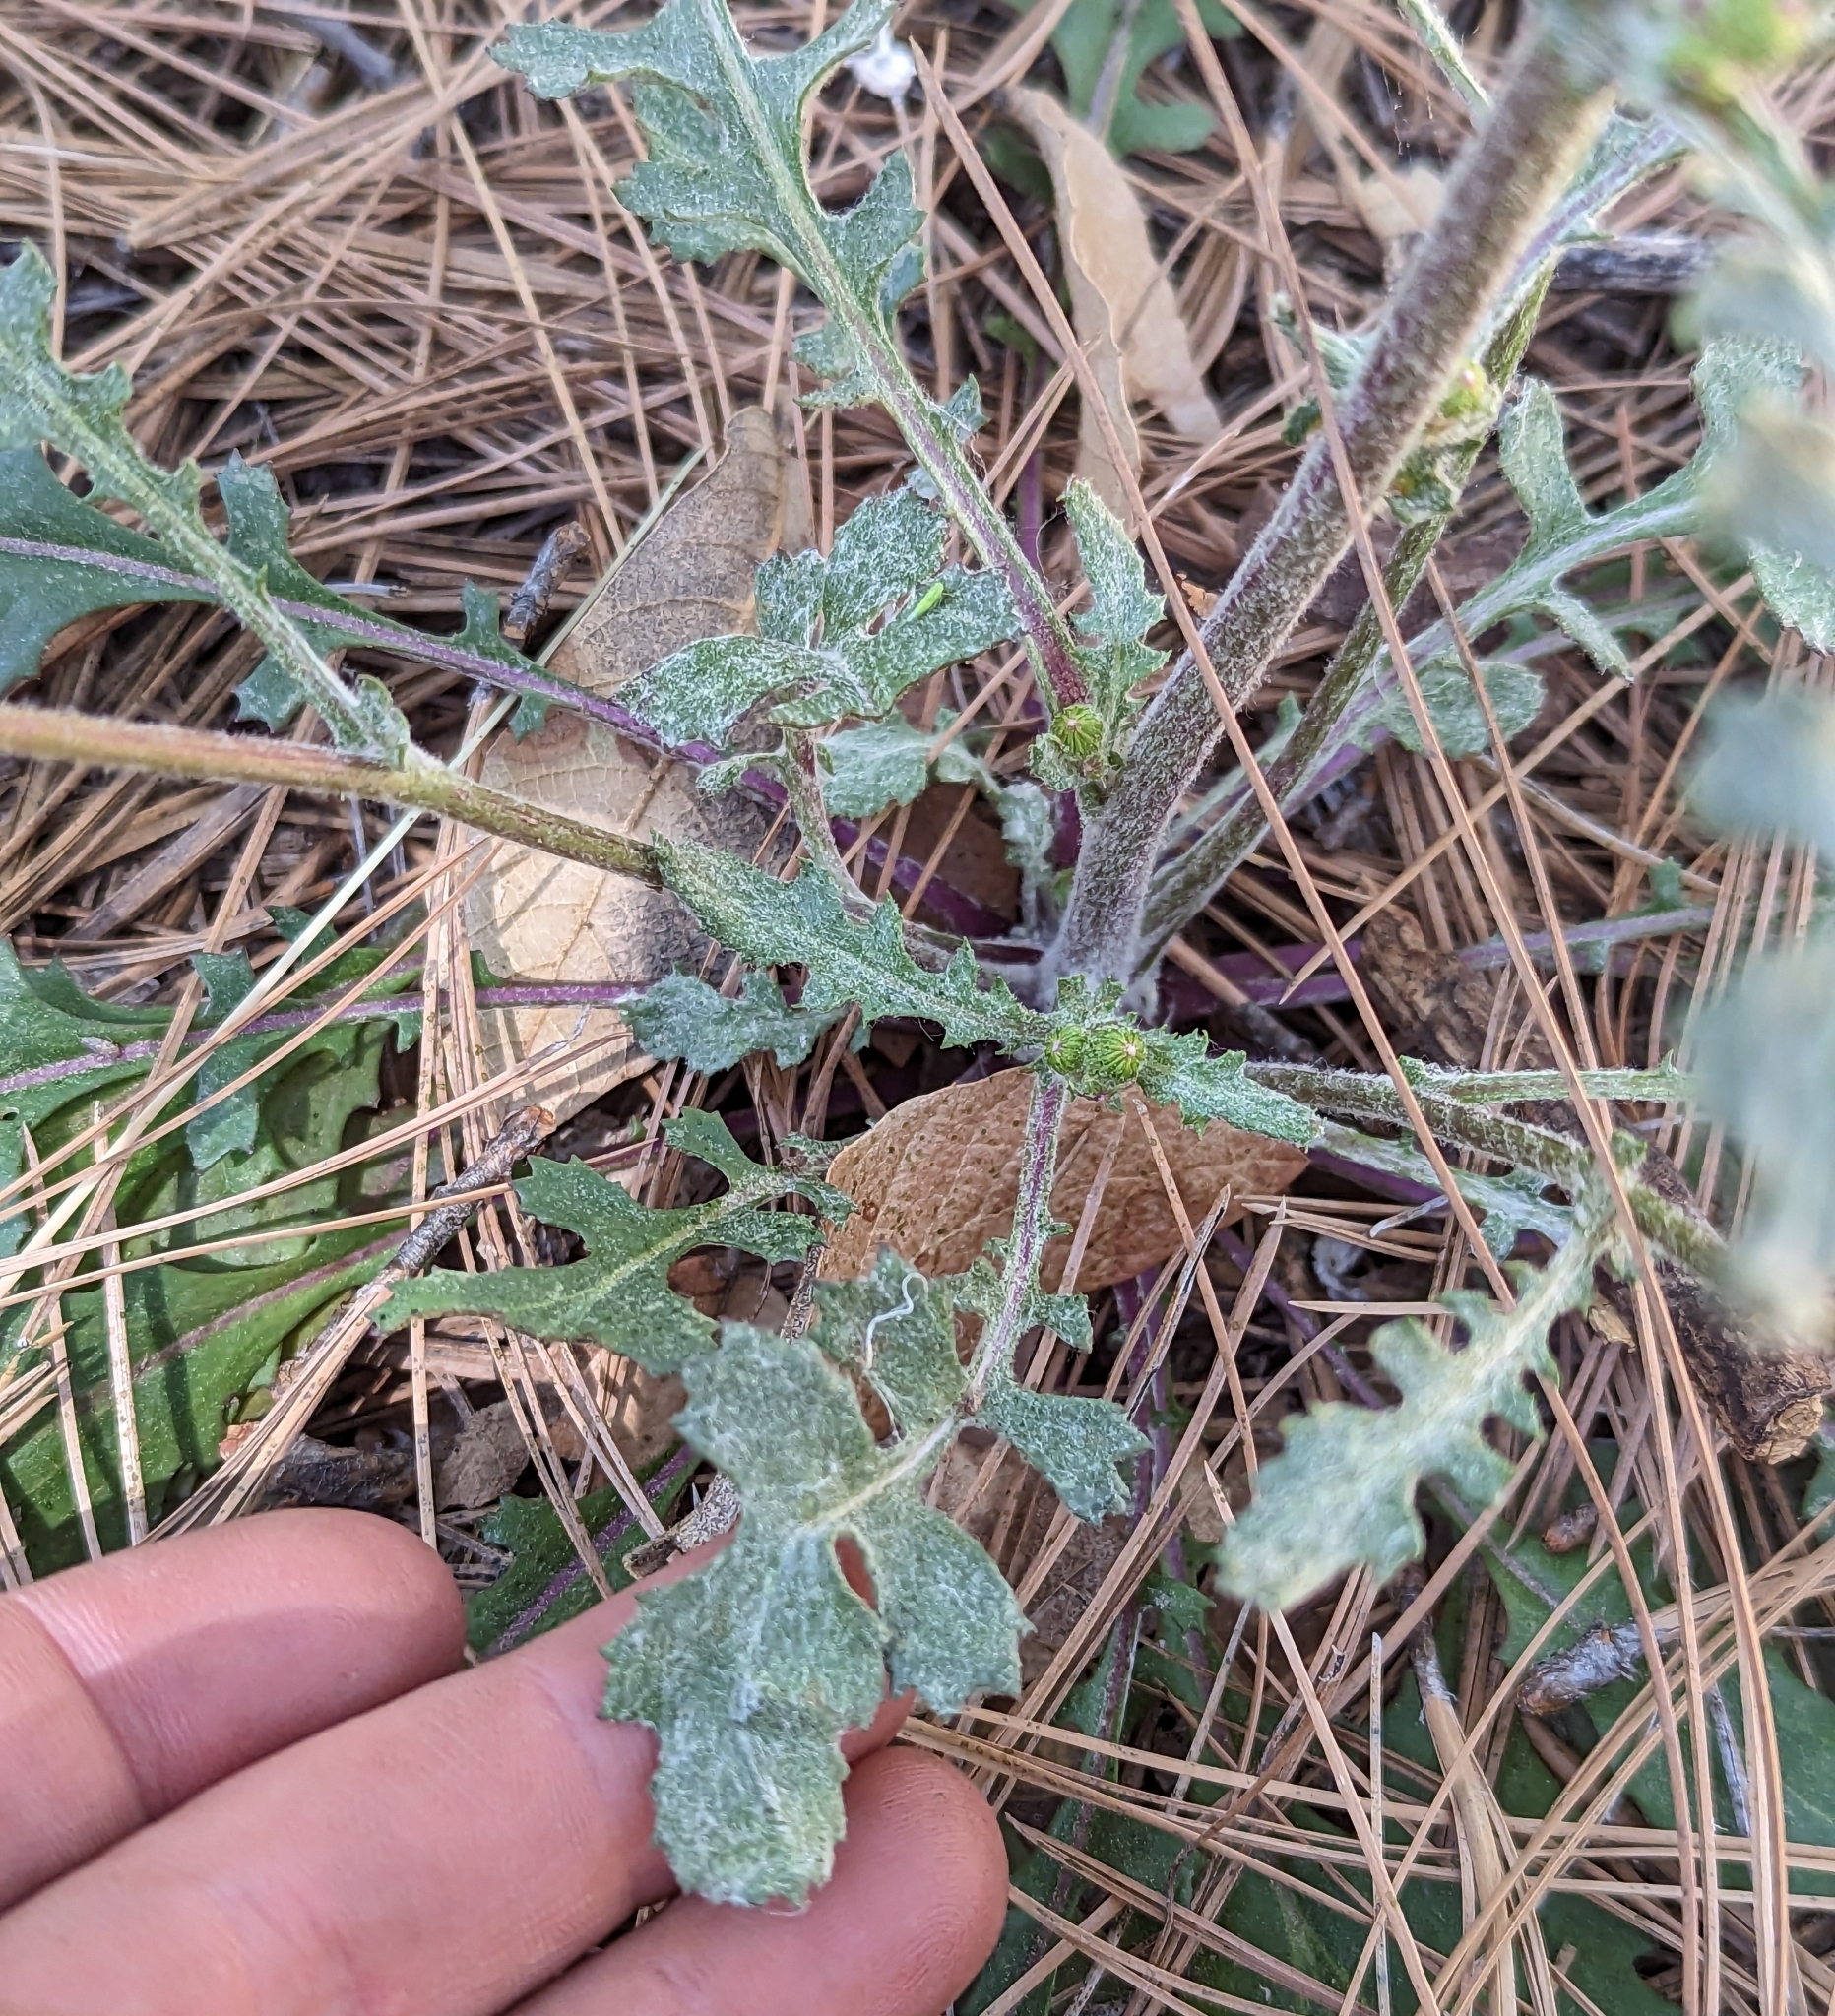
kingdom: Plantae
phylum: Tracheophyta
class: Magnoliopsida
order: Asterales
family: Asteraceae
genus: Packera
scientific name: Packera neomexicana
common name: New mexico butterweed
